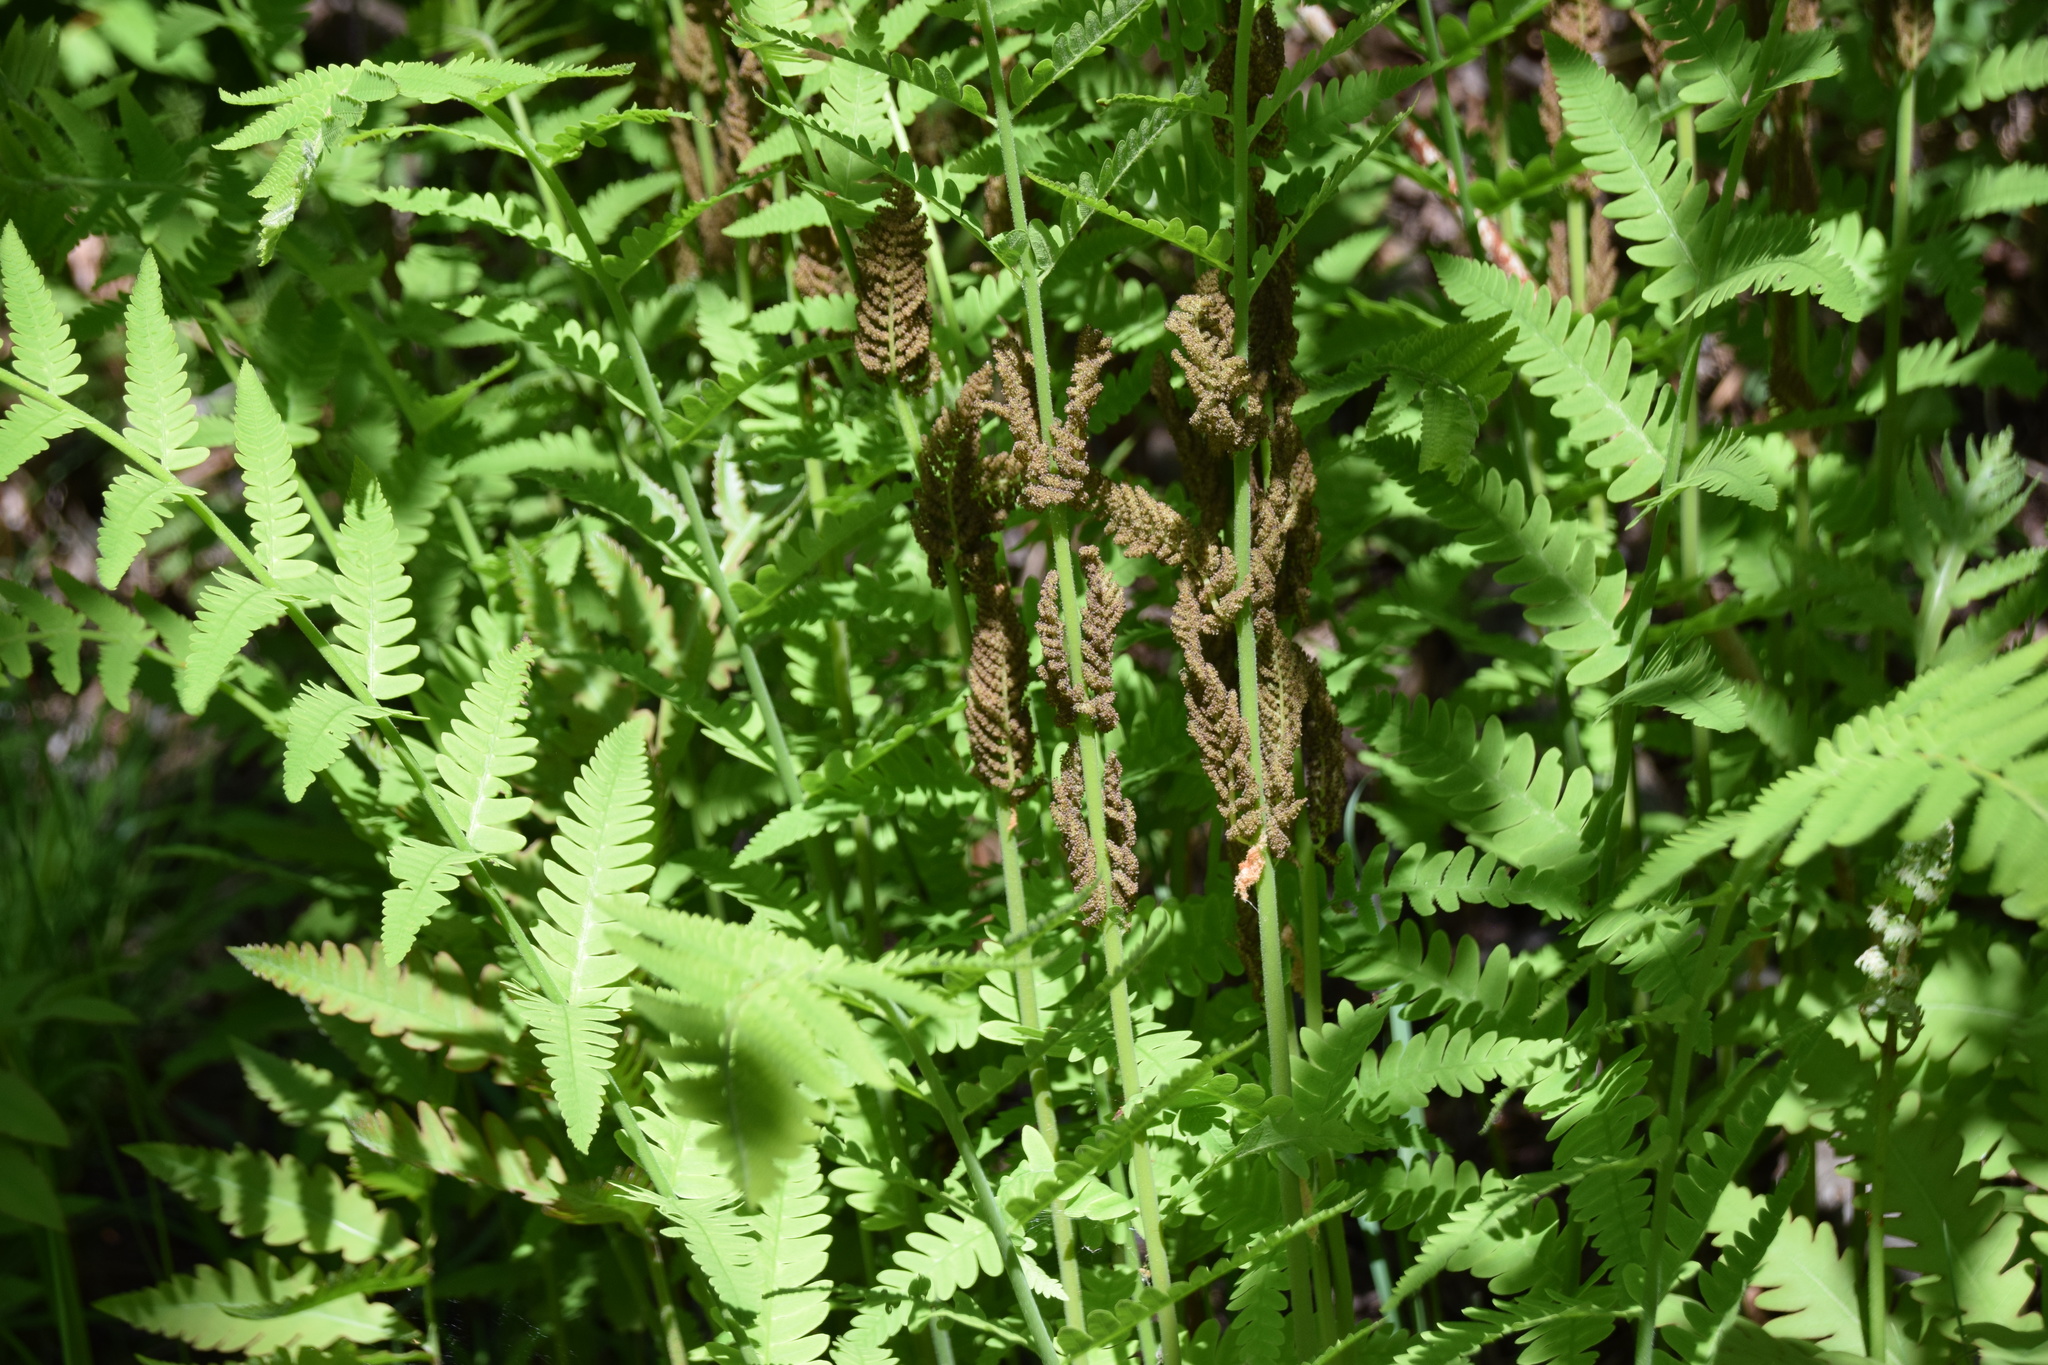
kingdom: Plantae
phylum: Tracheophyta
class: Polypodiopsida
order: Osmundales
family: Osmundaceae
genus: Claytosmunda
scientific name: Claytosmunda claytoniana
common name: Clayton's fern
